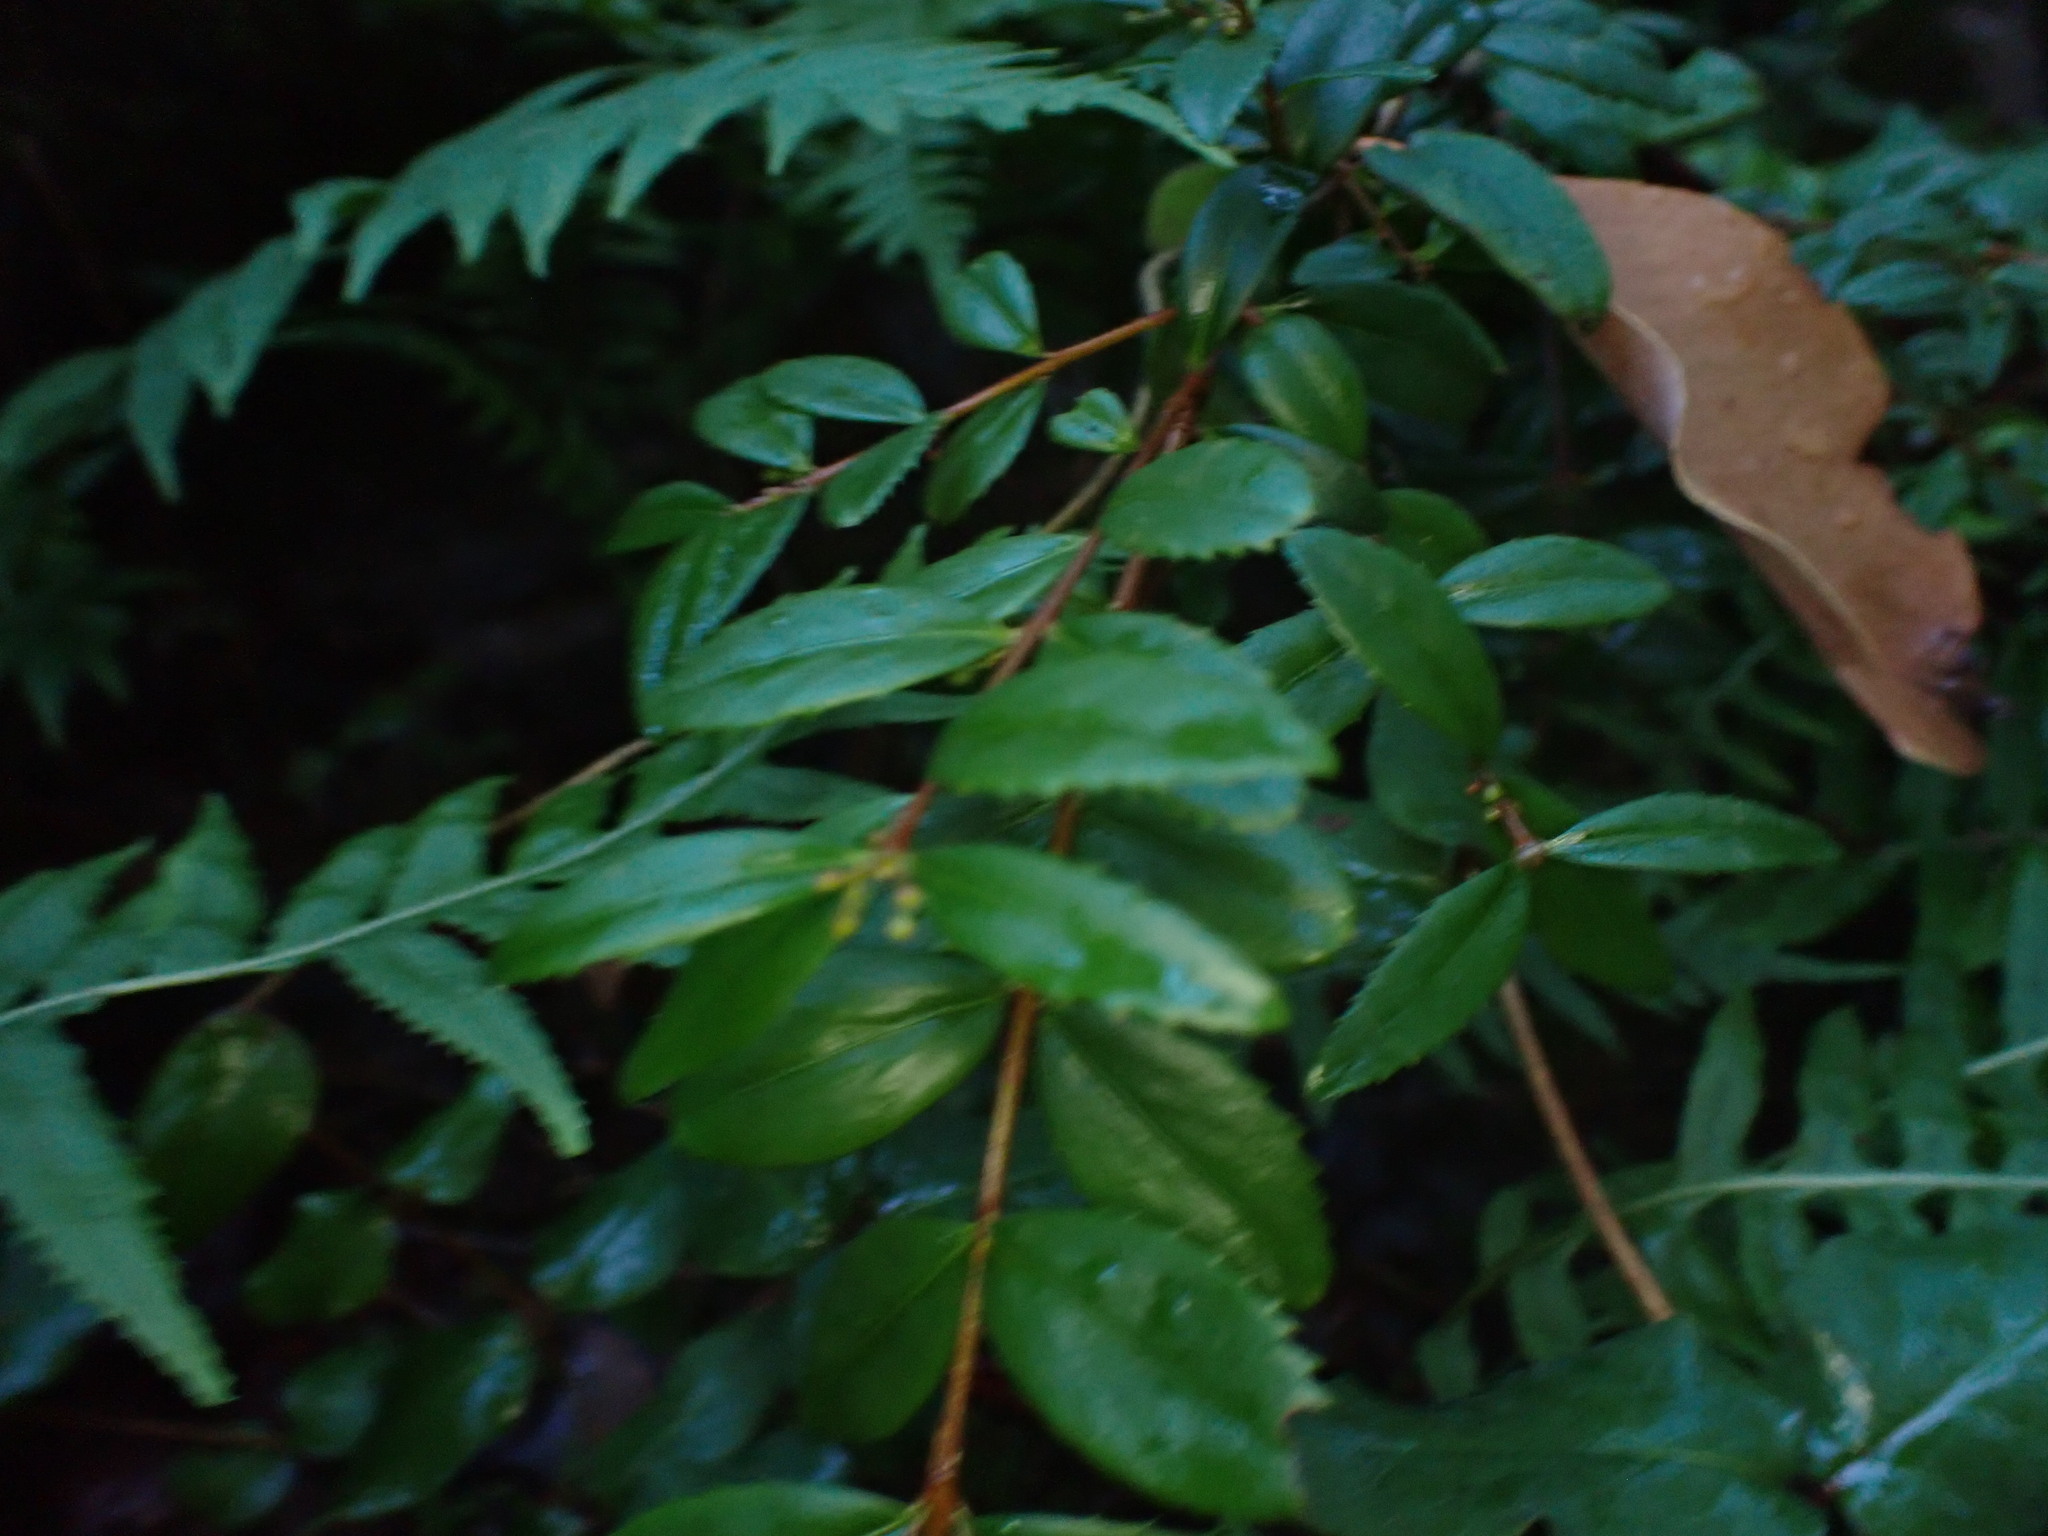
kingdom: Plantae
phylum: Tracheophyta
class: Magnoliopsida
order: Celastrales
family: Celastraceae
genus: Paxistima
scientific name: Paxistima myrsinites
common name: Mountain-lover
